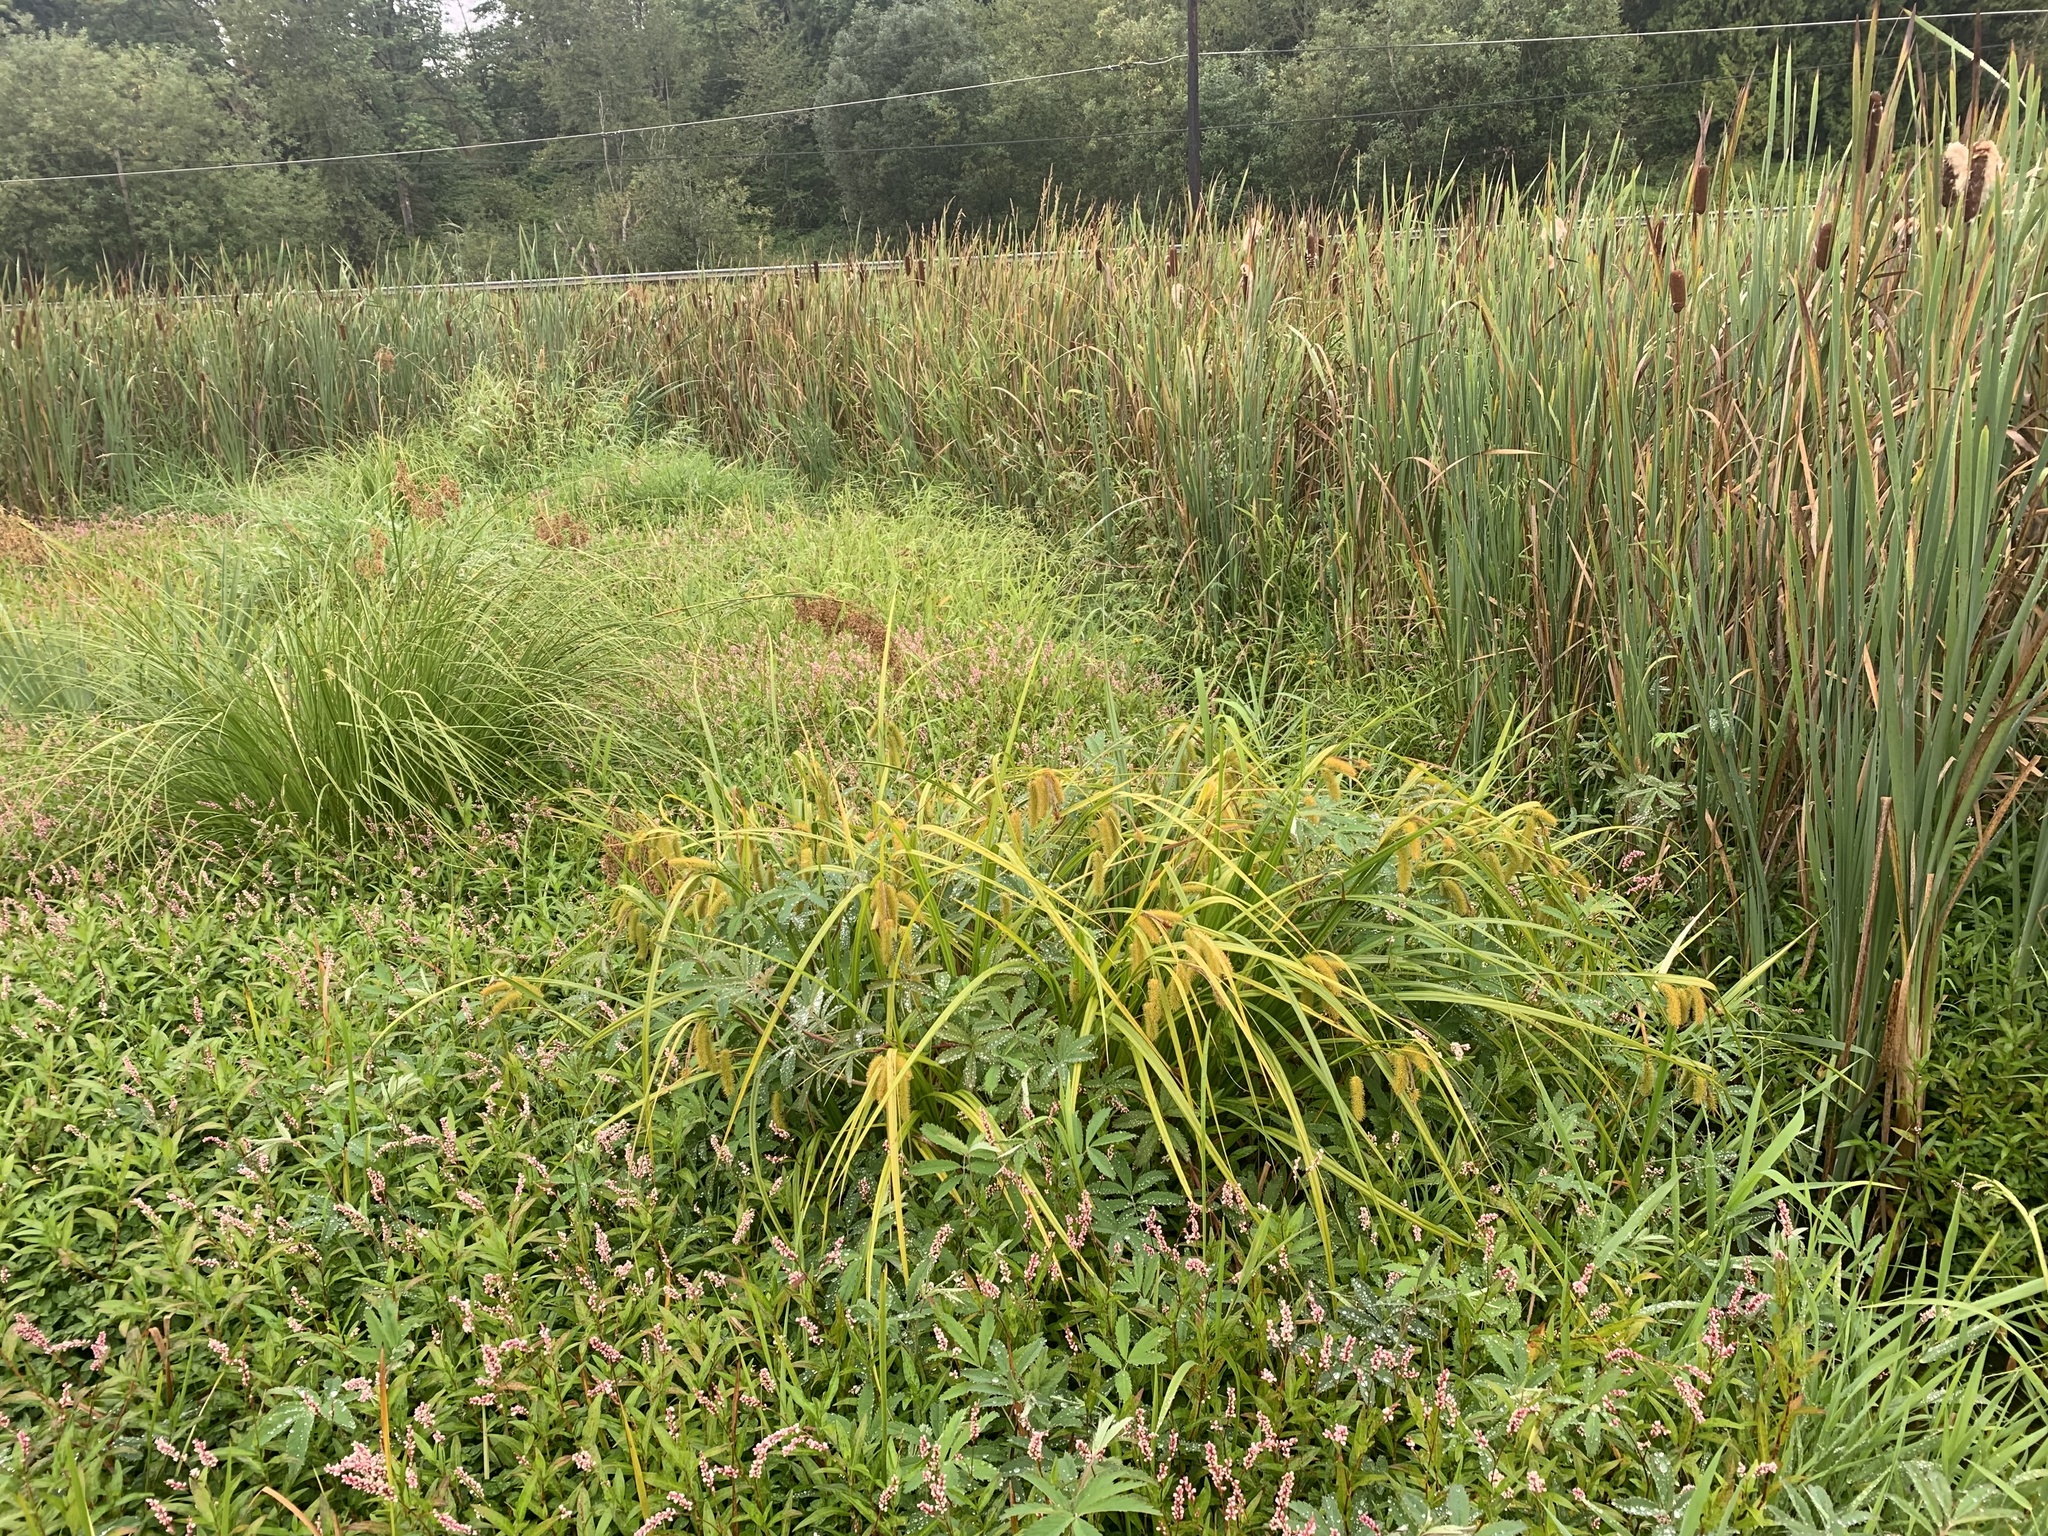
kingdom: Plantae
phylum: Tracheophyta
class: Liliopsida
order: Poales
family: Cyperaceae
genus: Carex
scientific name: Carex comosa
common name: Bristly sedge
